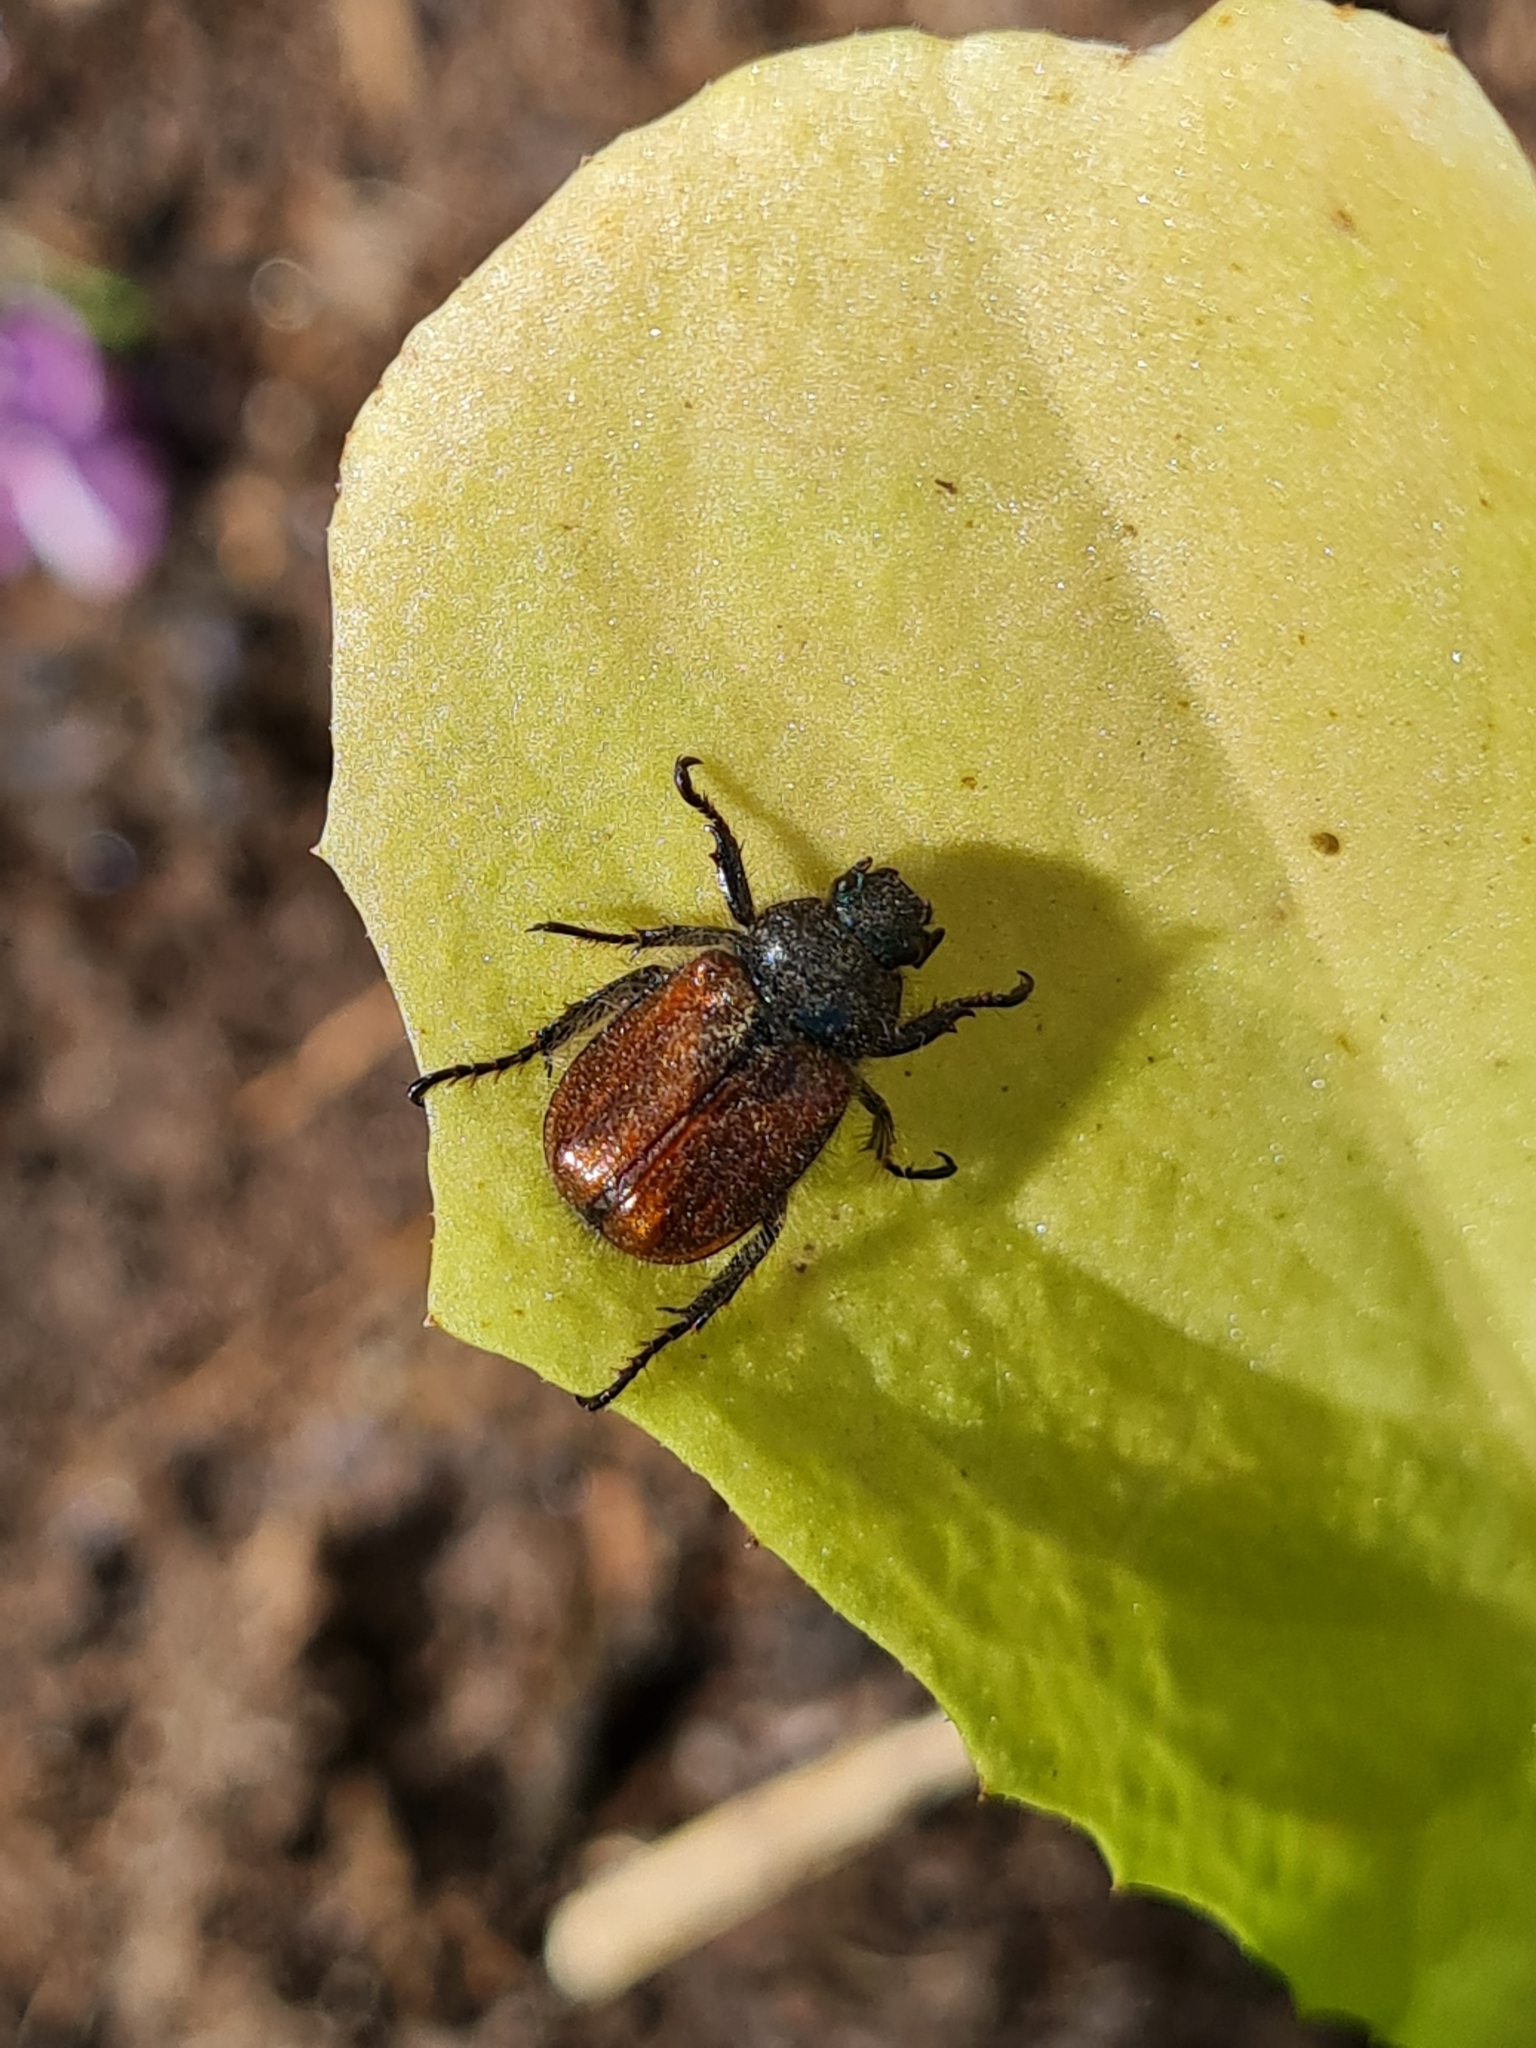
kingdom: Animalia
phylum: Arthropoda
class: Insecta
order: Coleoptera
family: Scarabaeidae
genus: Phyllopertha
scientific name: Phyllopertha horticola
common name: Garden chafer
